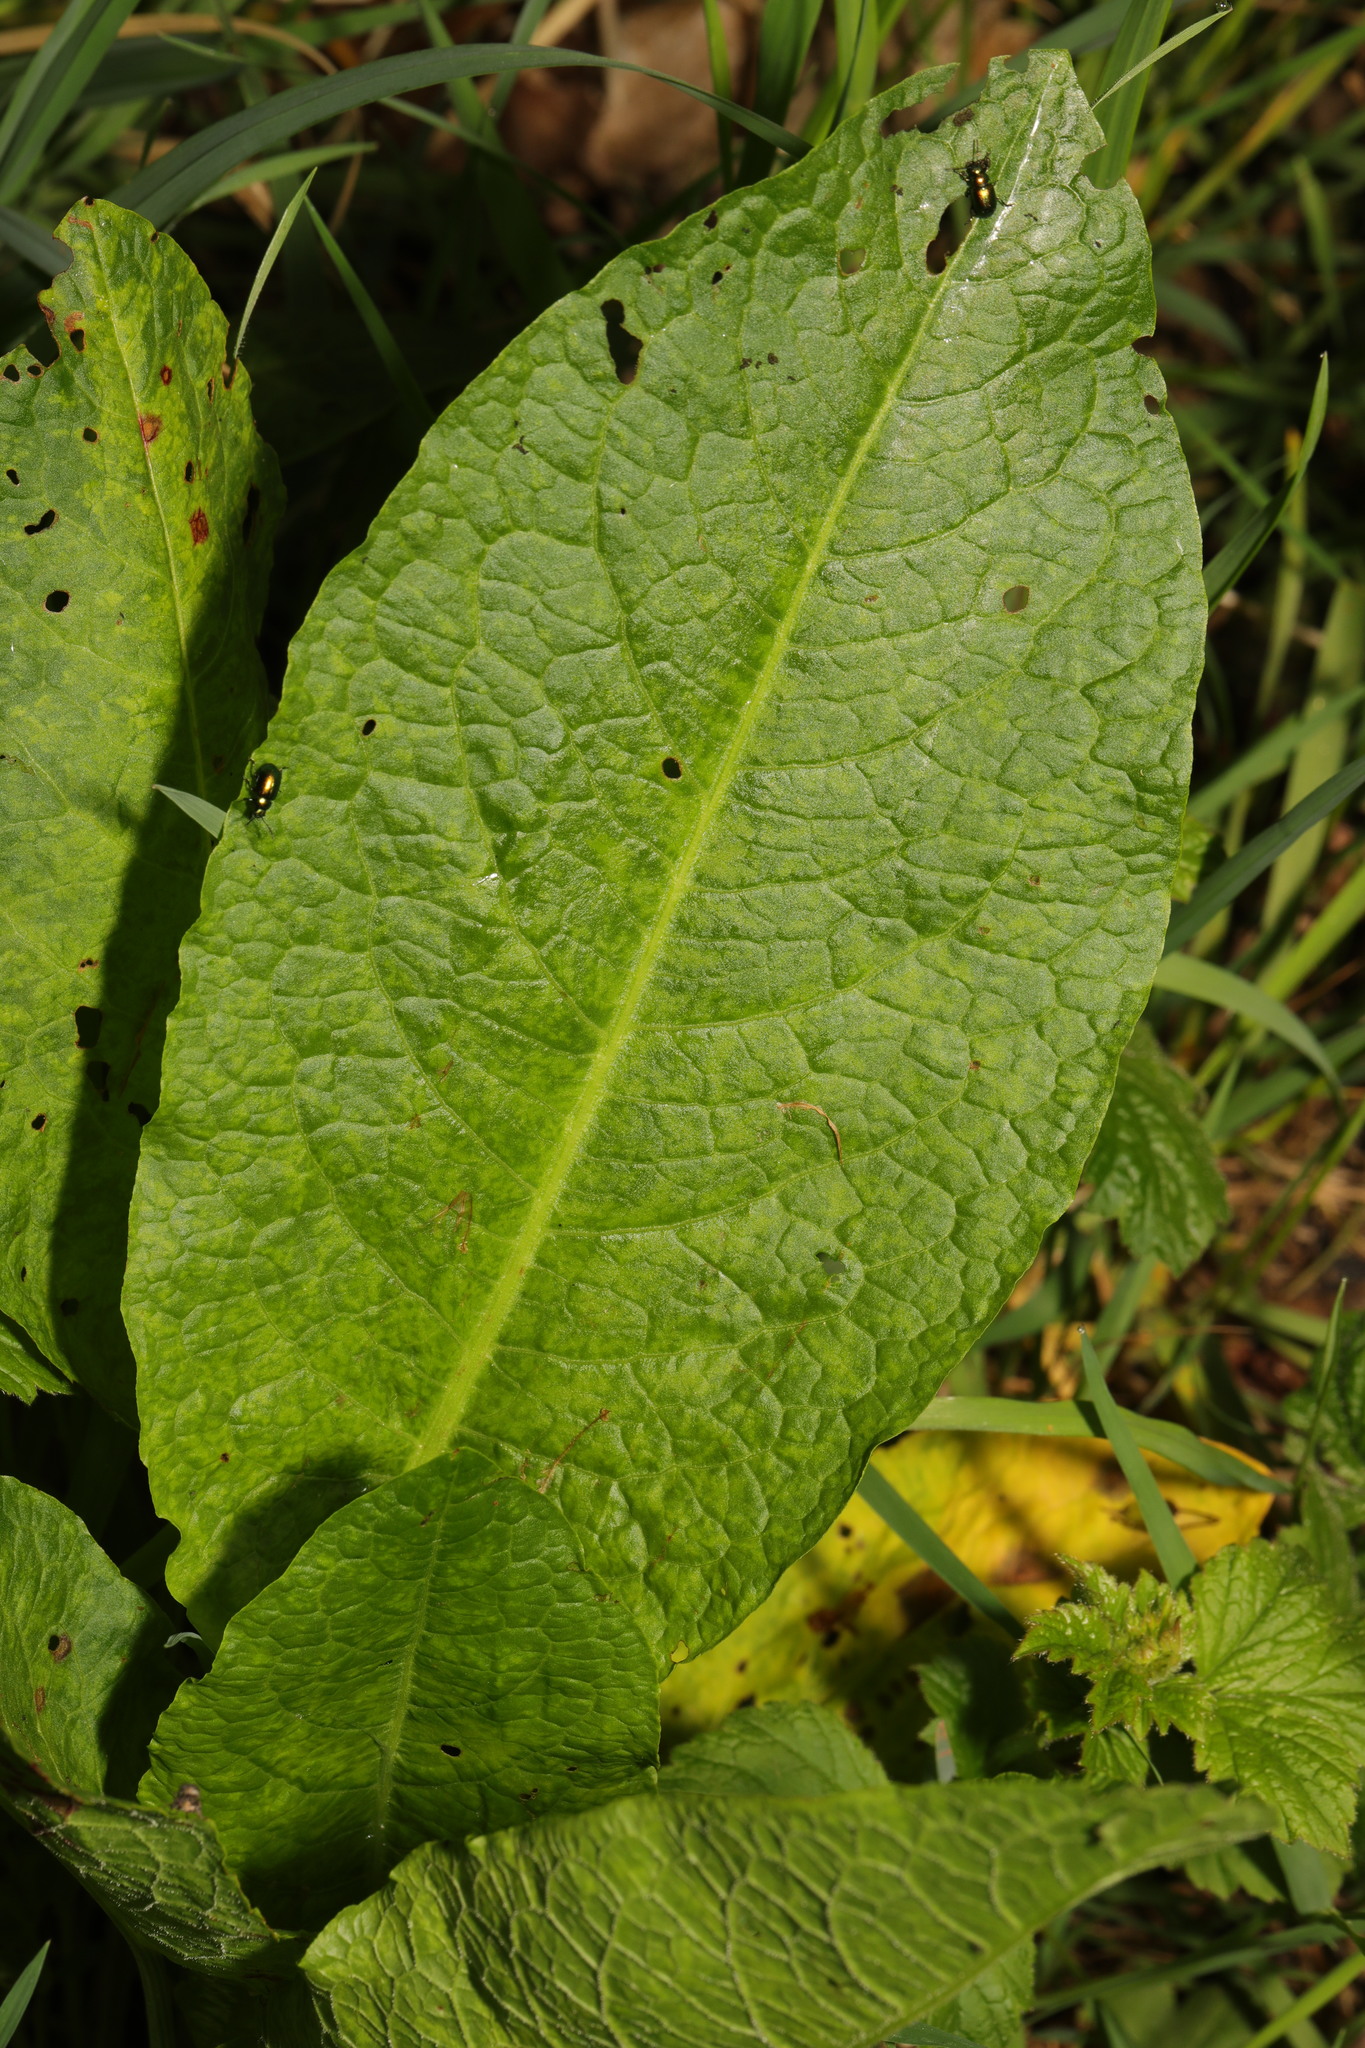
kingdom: Plantae
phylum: Tracheophyta
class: Magnoliopsida
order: Caryophyllales
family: Polygonaceae
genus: Rumex
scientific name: Rumex obtusifolius
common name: Bitter dock
